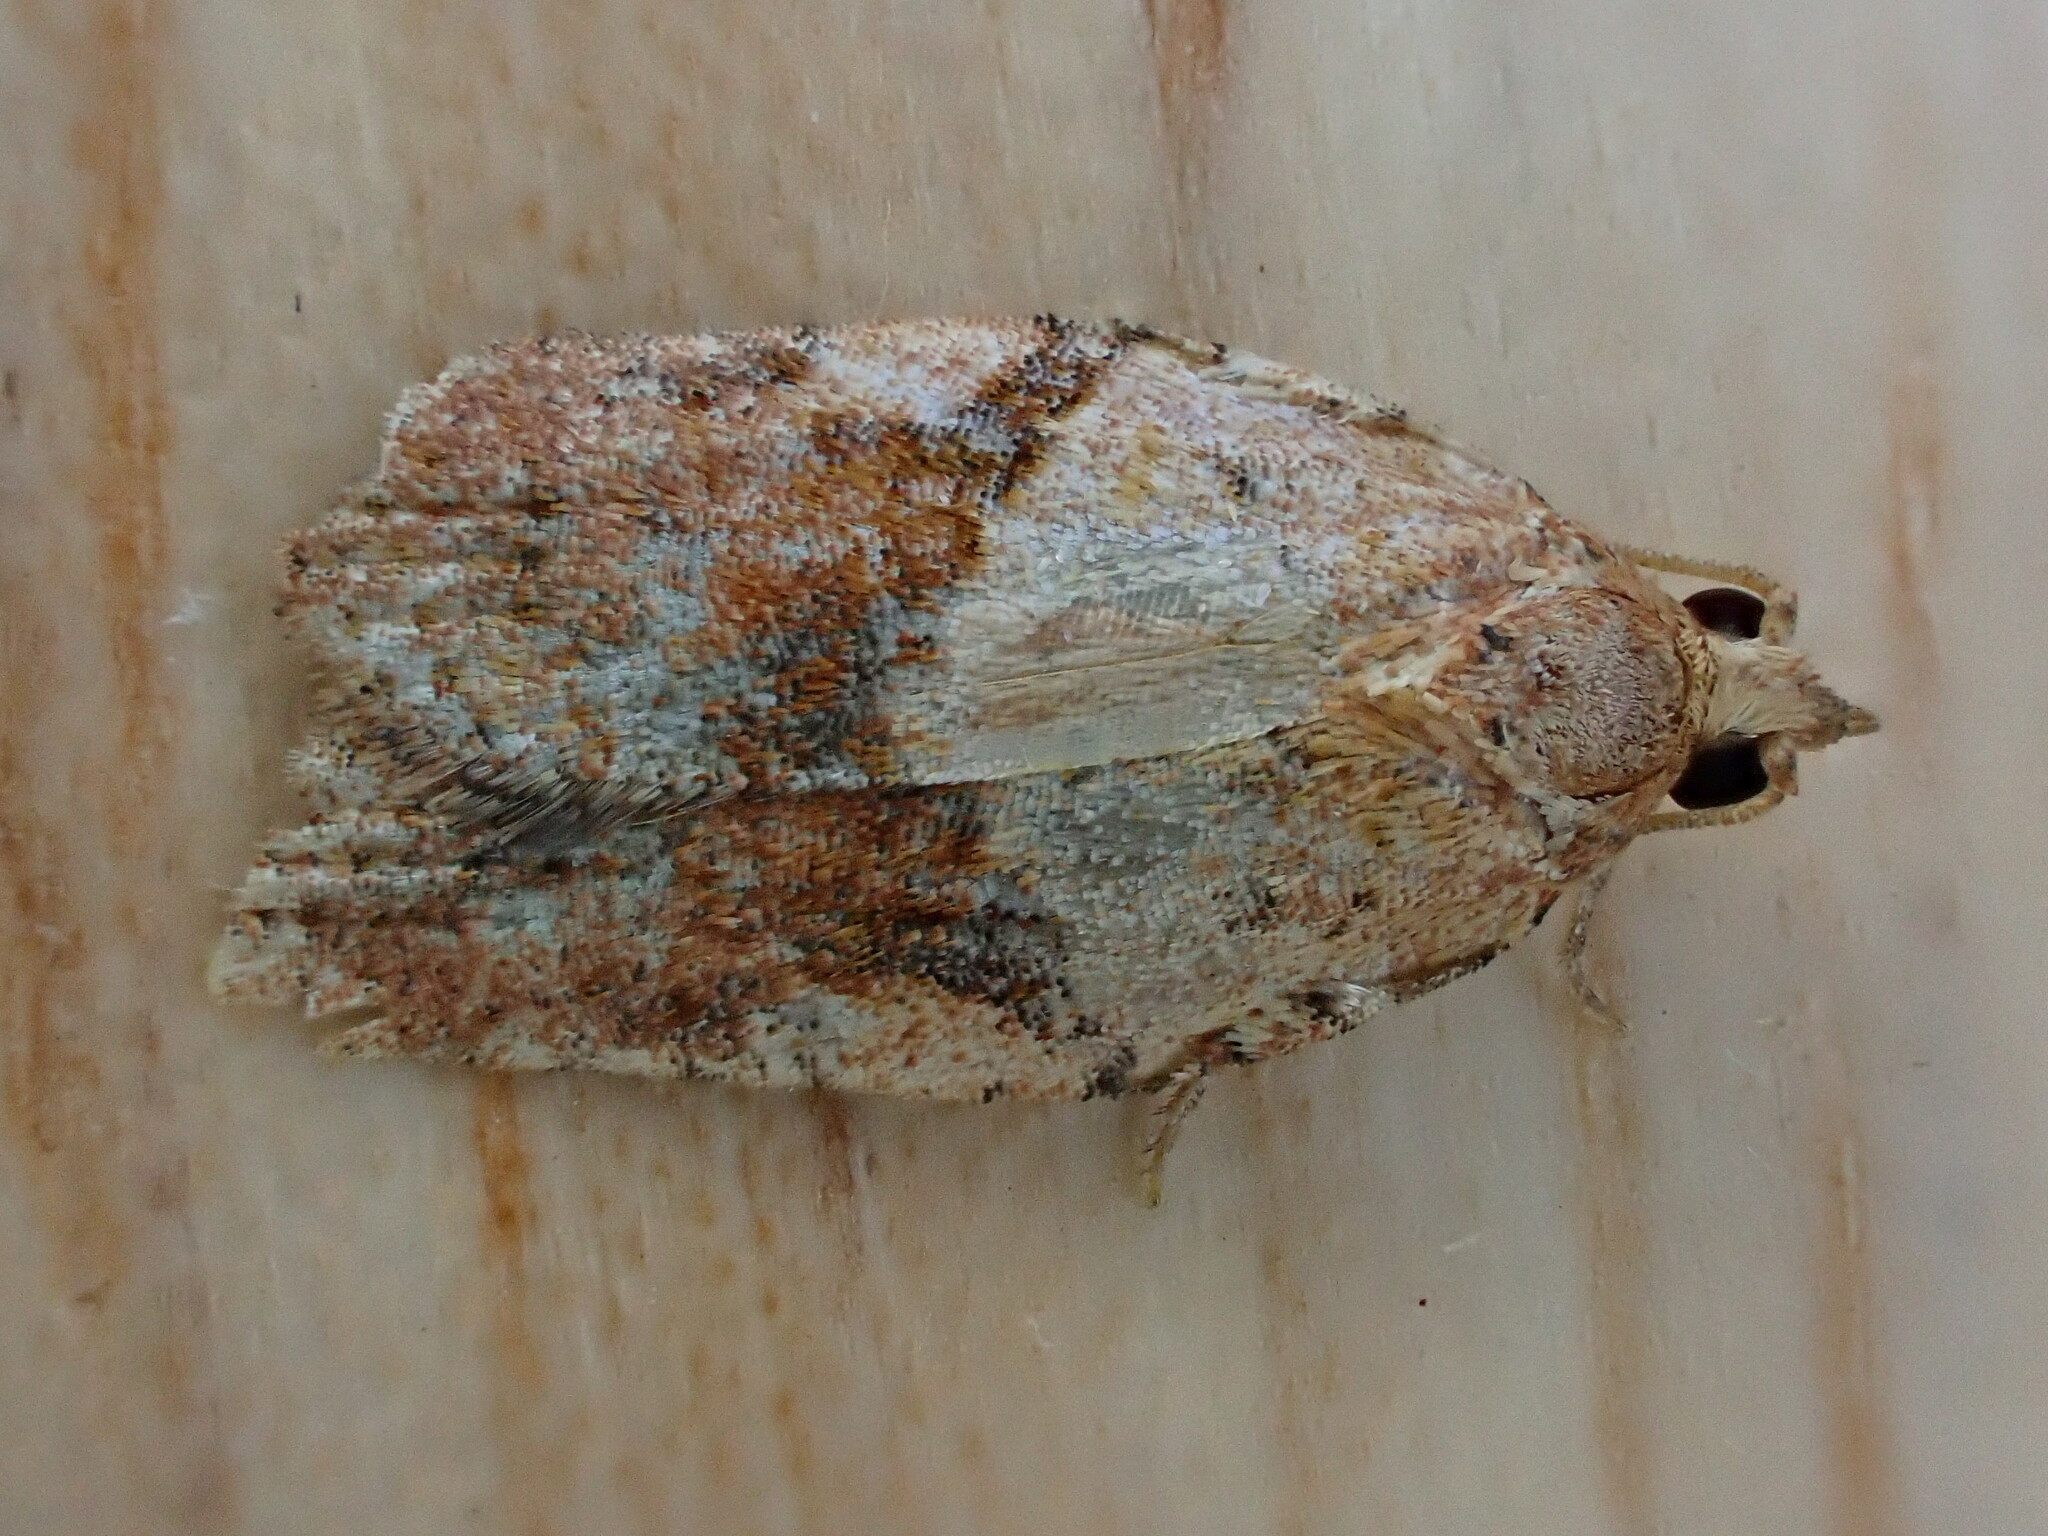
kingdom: Animalia
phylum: Arthropoda
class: Insecta
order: Lepidoptera
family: Tortricidae
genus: Epiphyas
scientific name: Epiphyas postvittana
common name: Light brown apple moth
